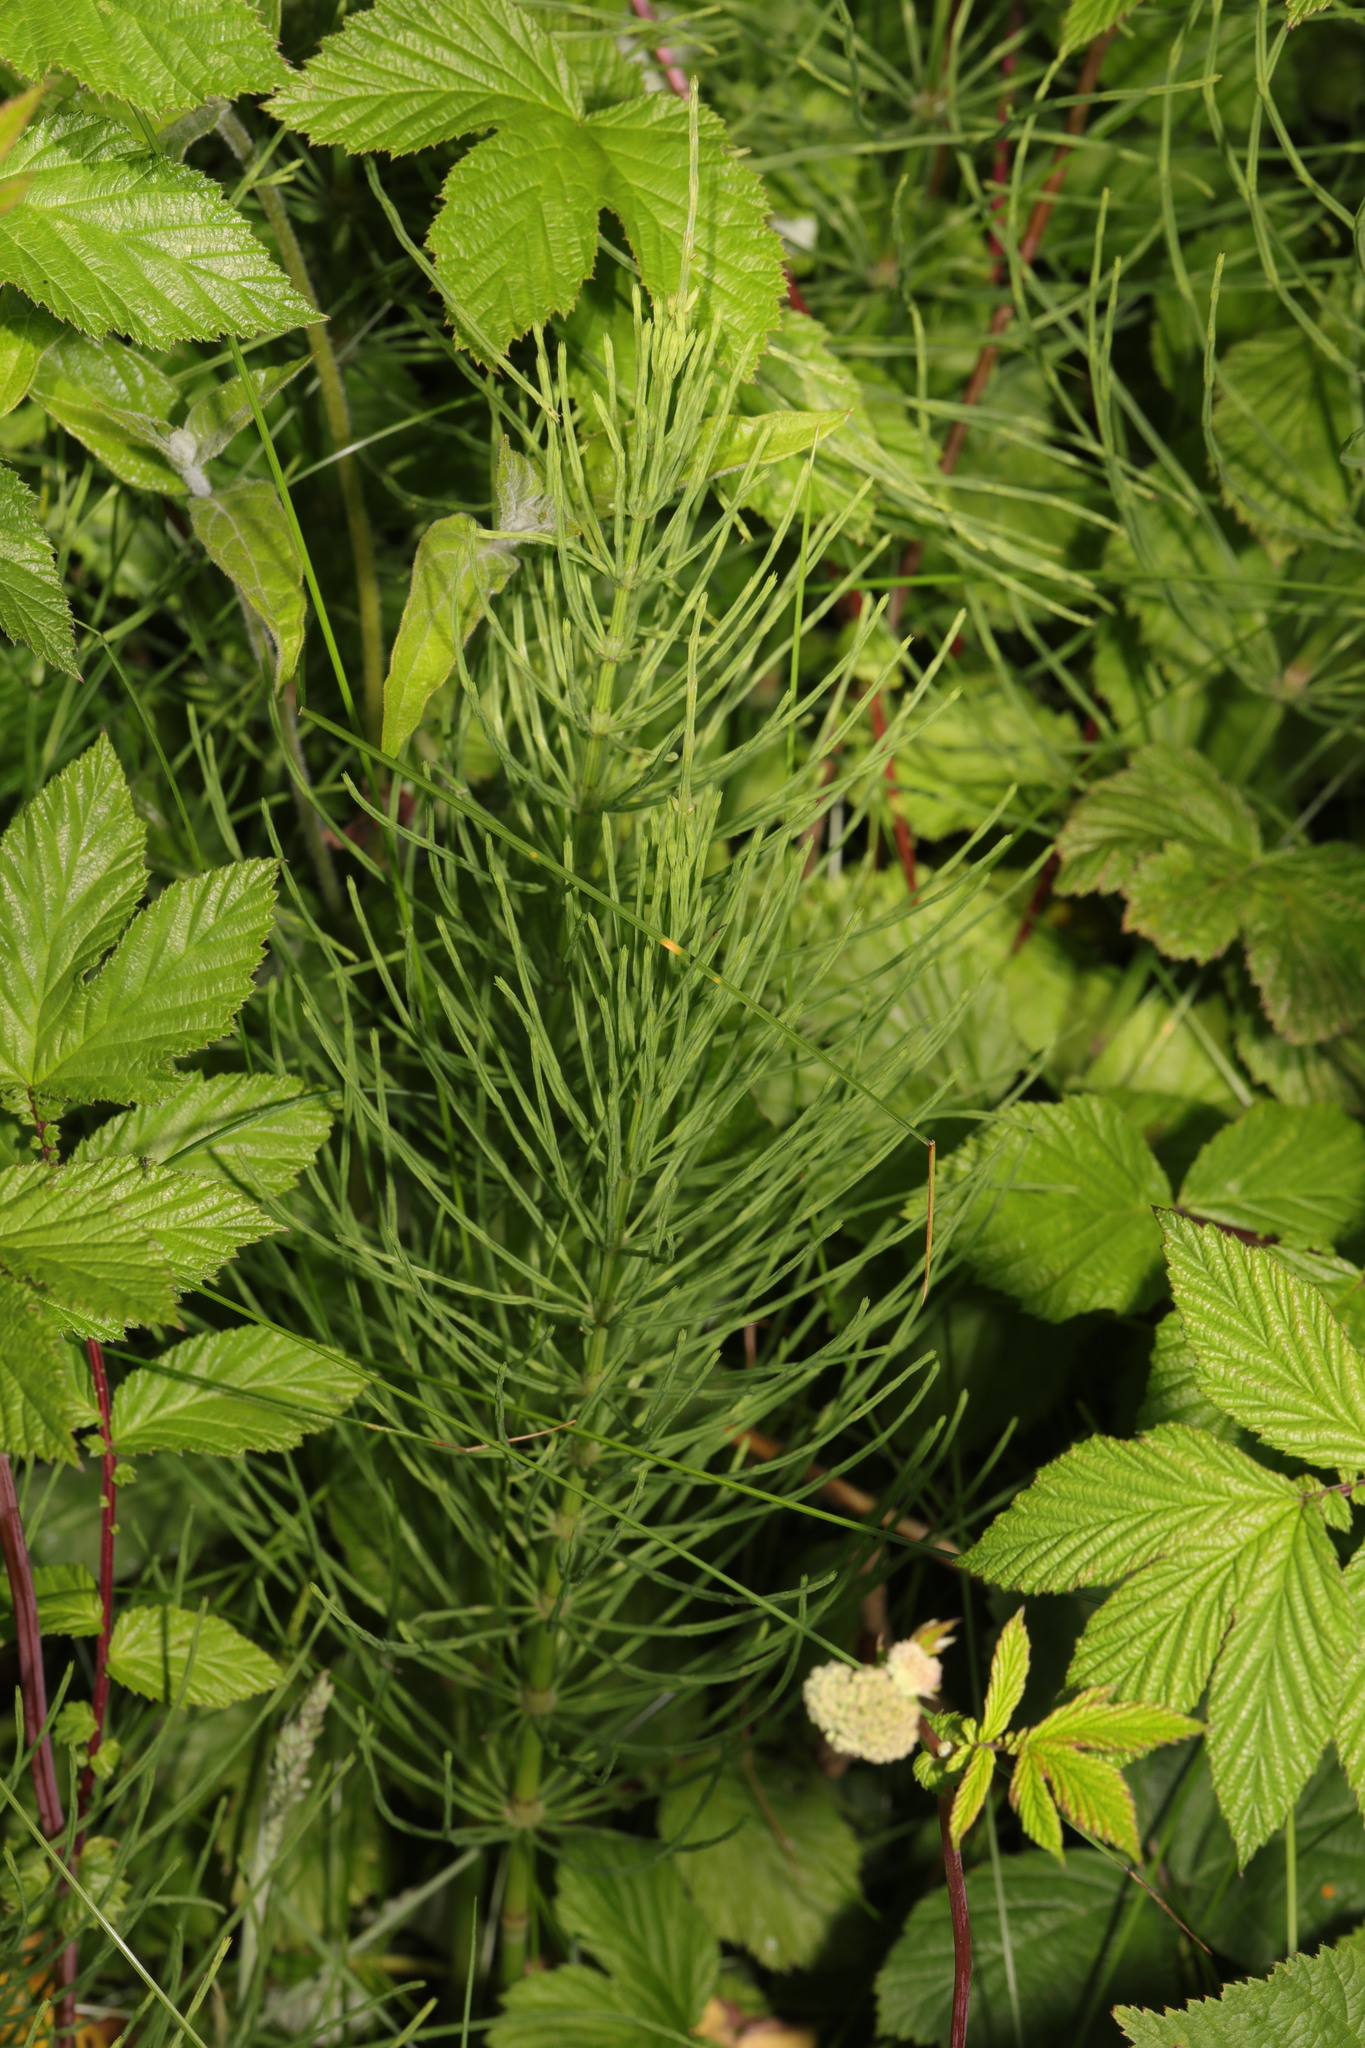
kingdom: Plantae
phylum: Tracheophyta
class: Polypodiopsida
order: Equisetales
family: Equisetaceae
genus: Equisetum
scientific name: Equisetum arvense
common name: Field horsetail
